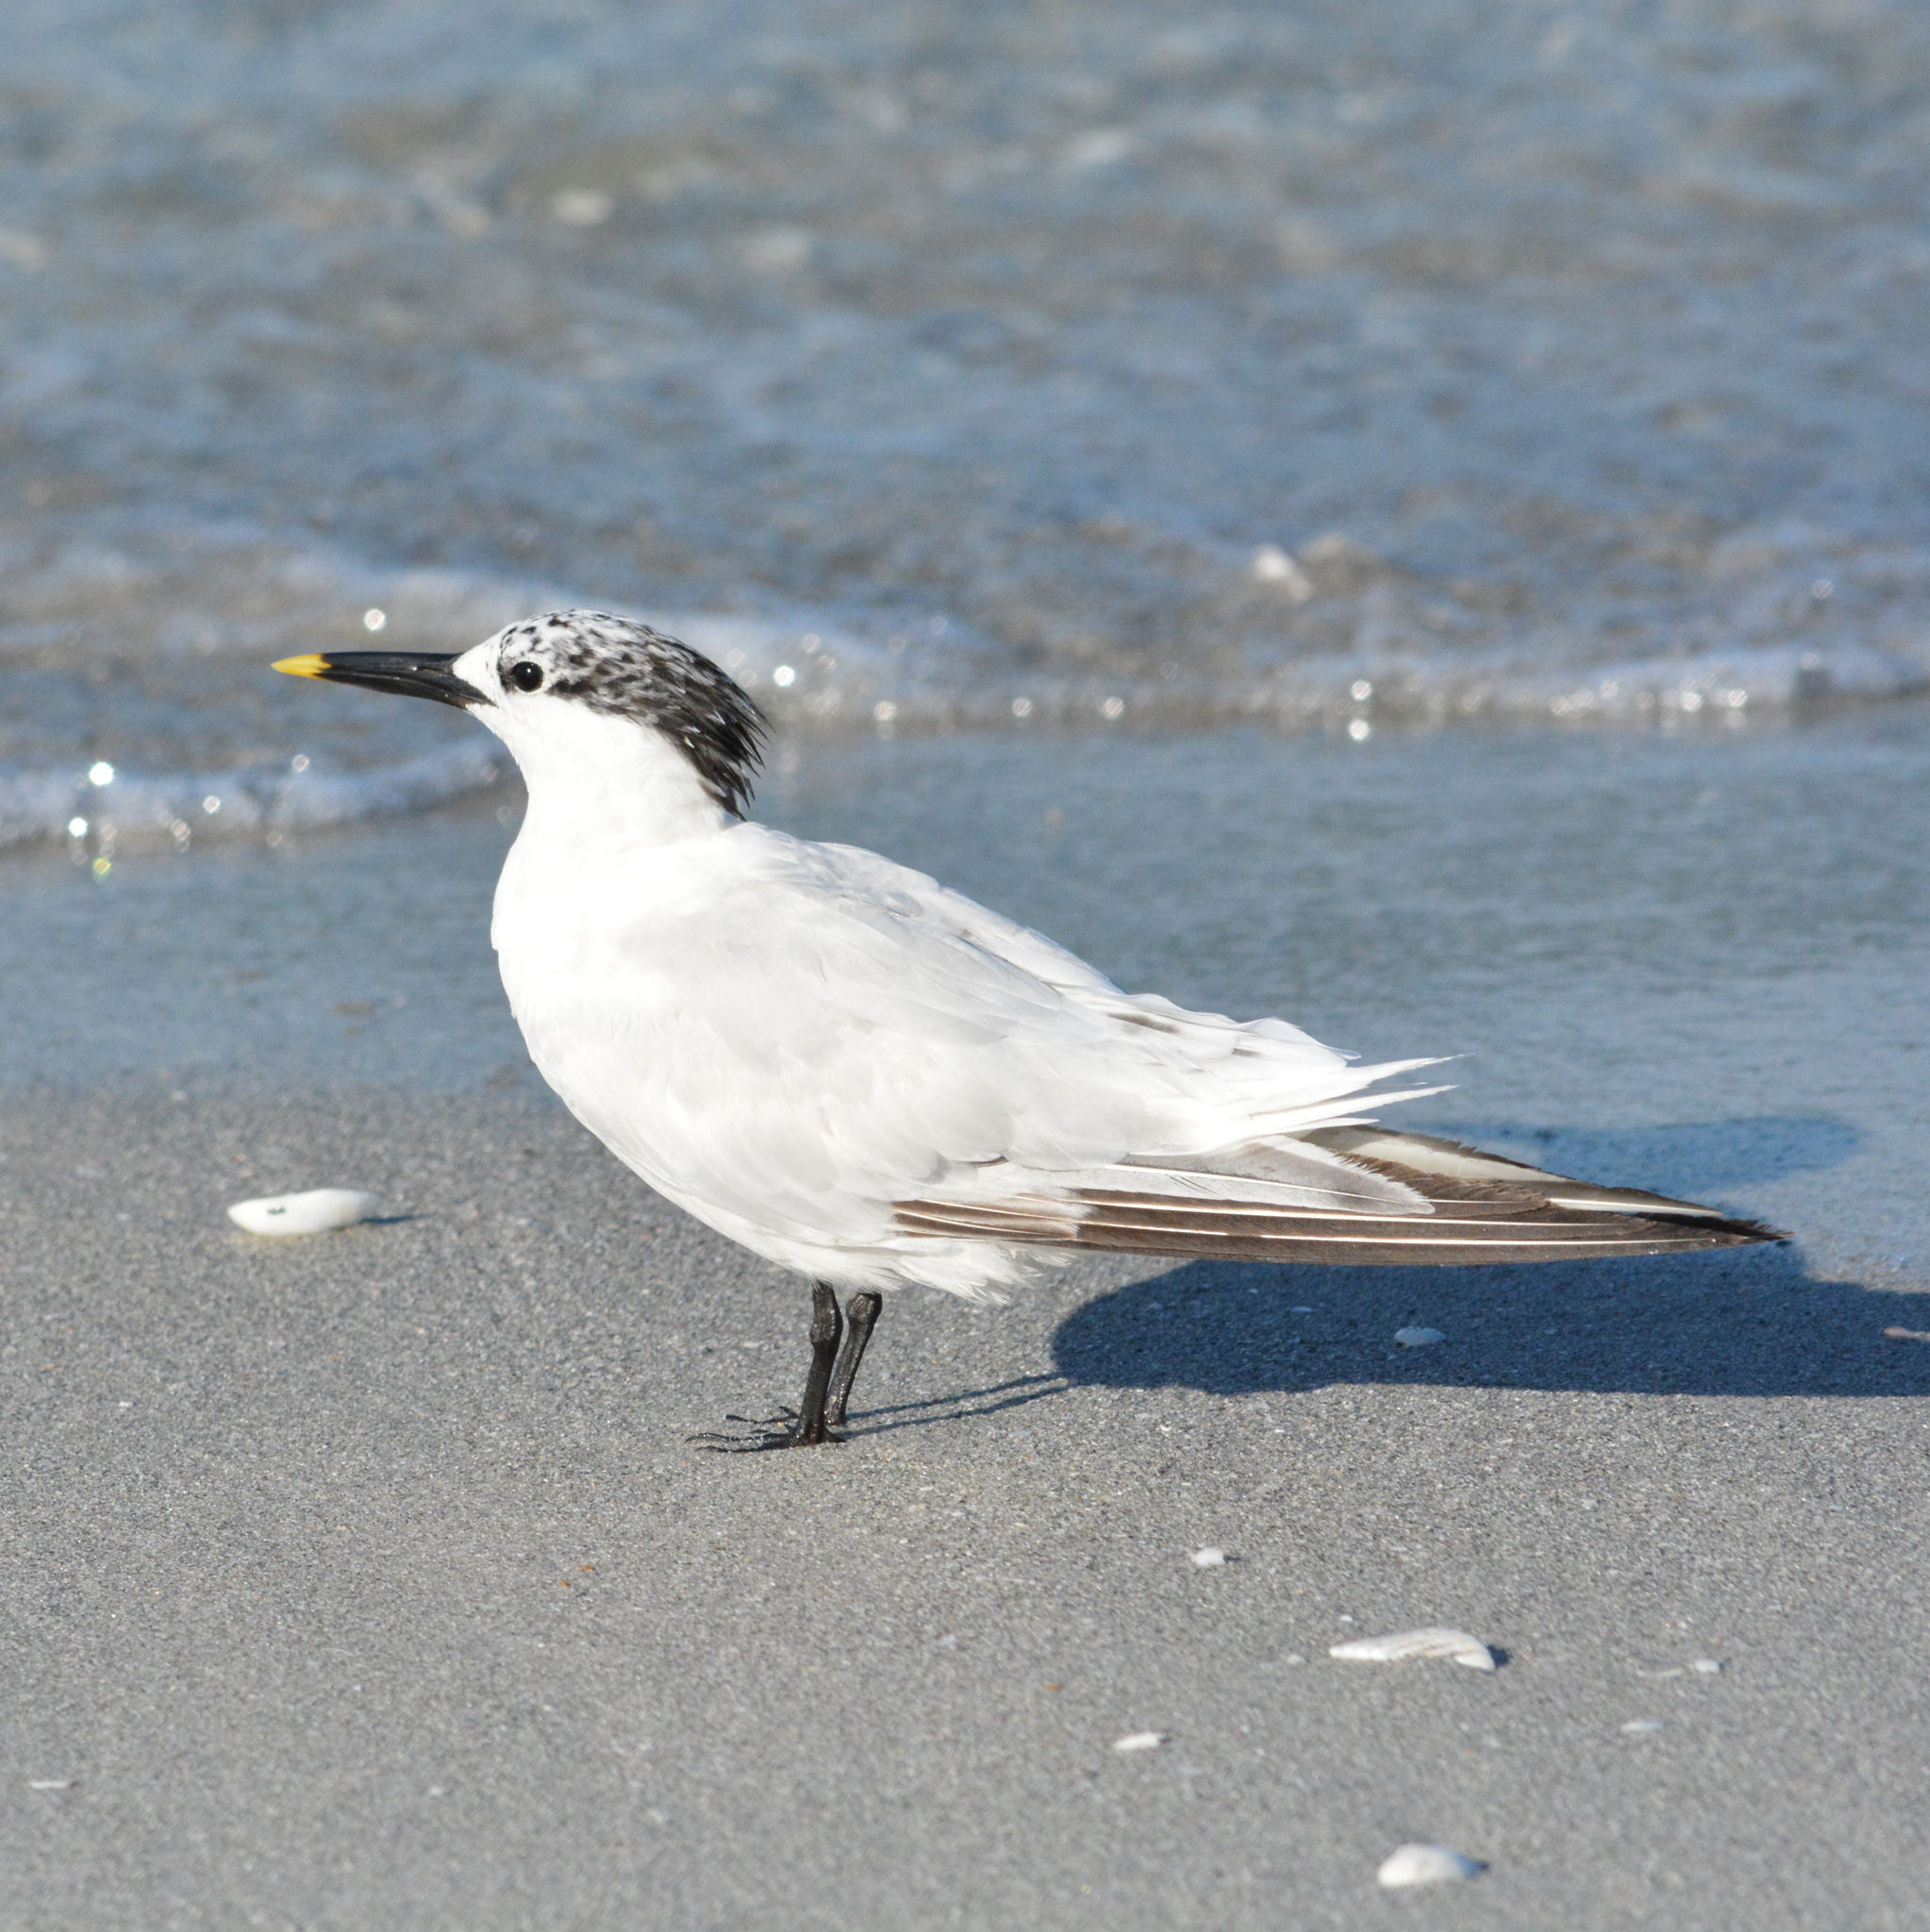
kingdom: Animalia
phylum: Chordata
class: Aves
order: Charadriiformes
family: Laridae
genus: Thalasseus
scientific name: Thalasseus sandvicensis
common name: Sandwich tern
